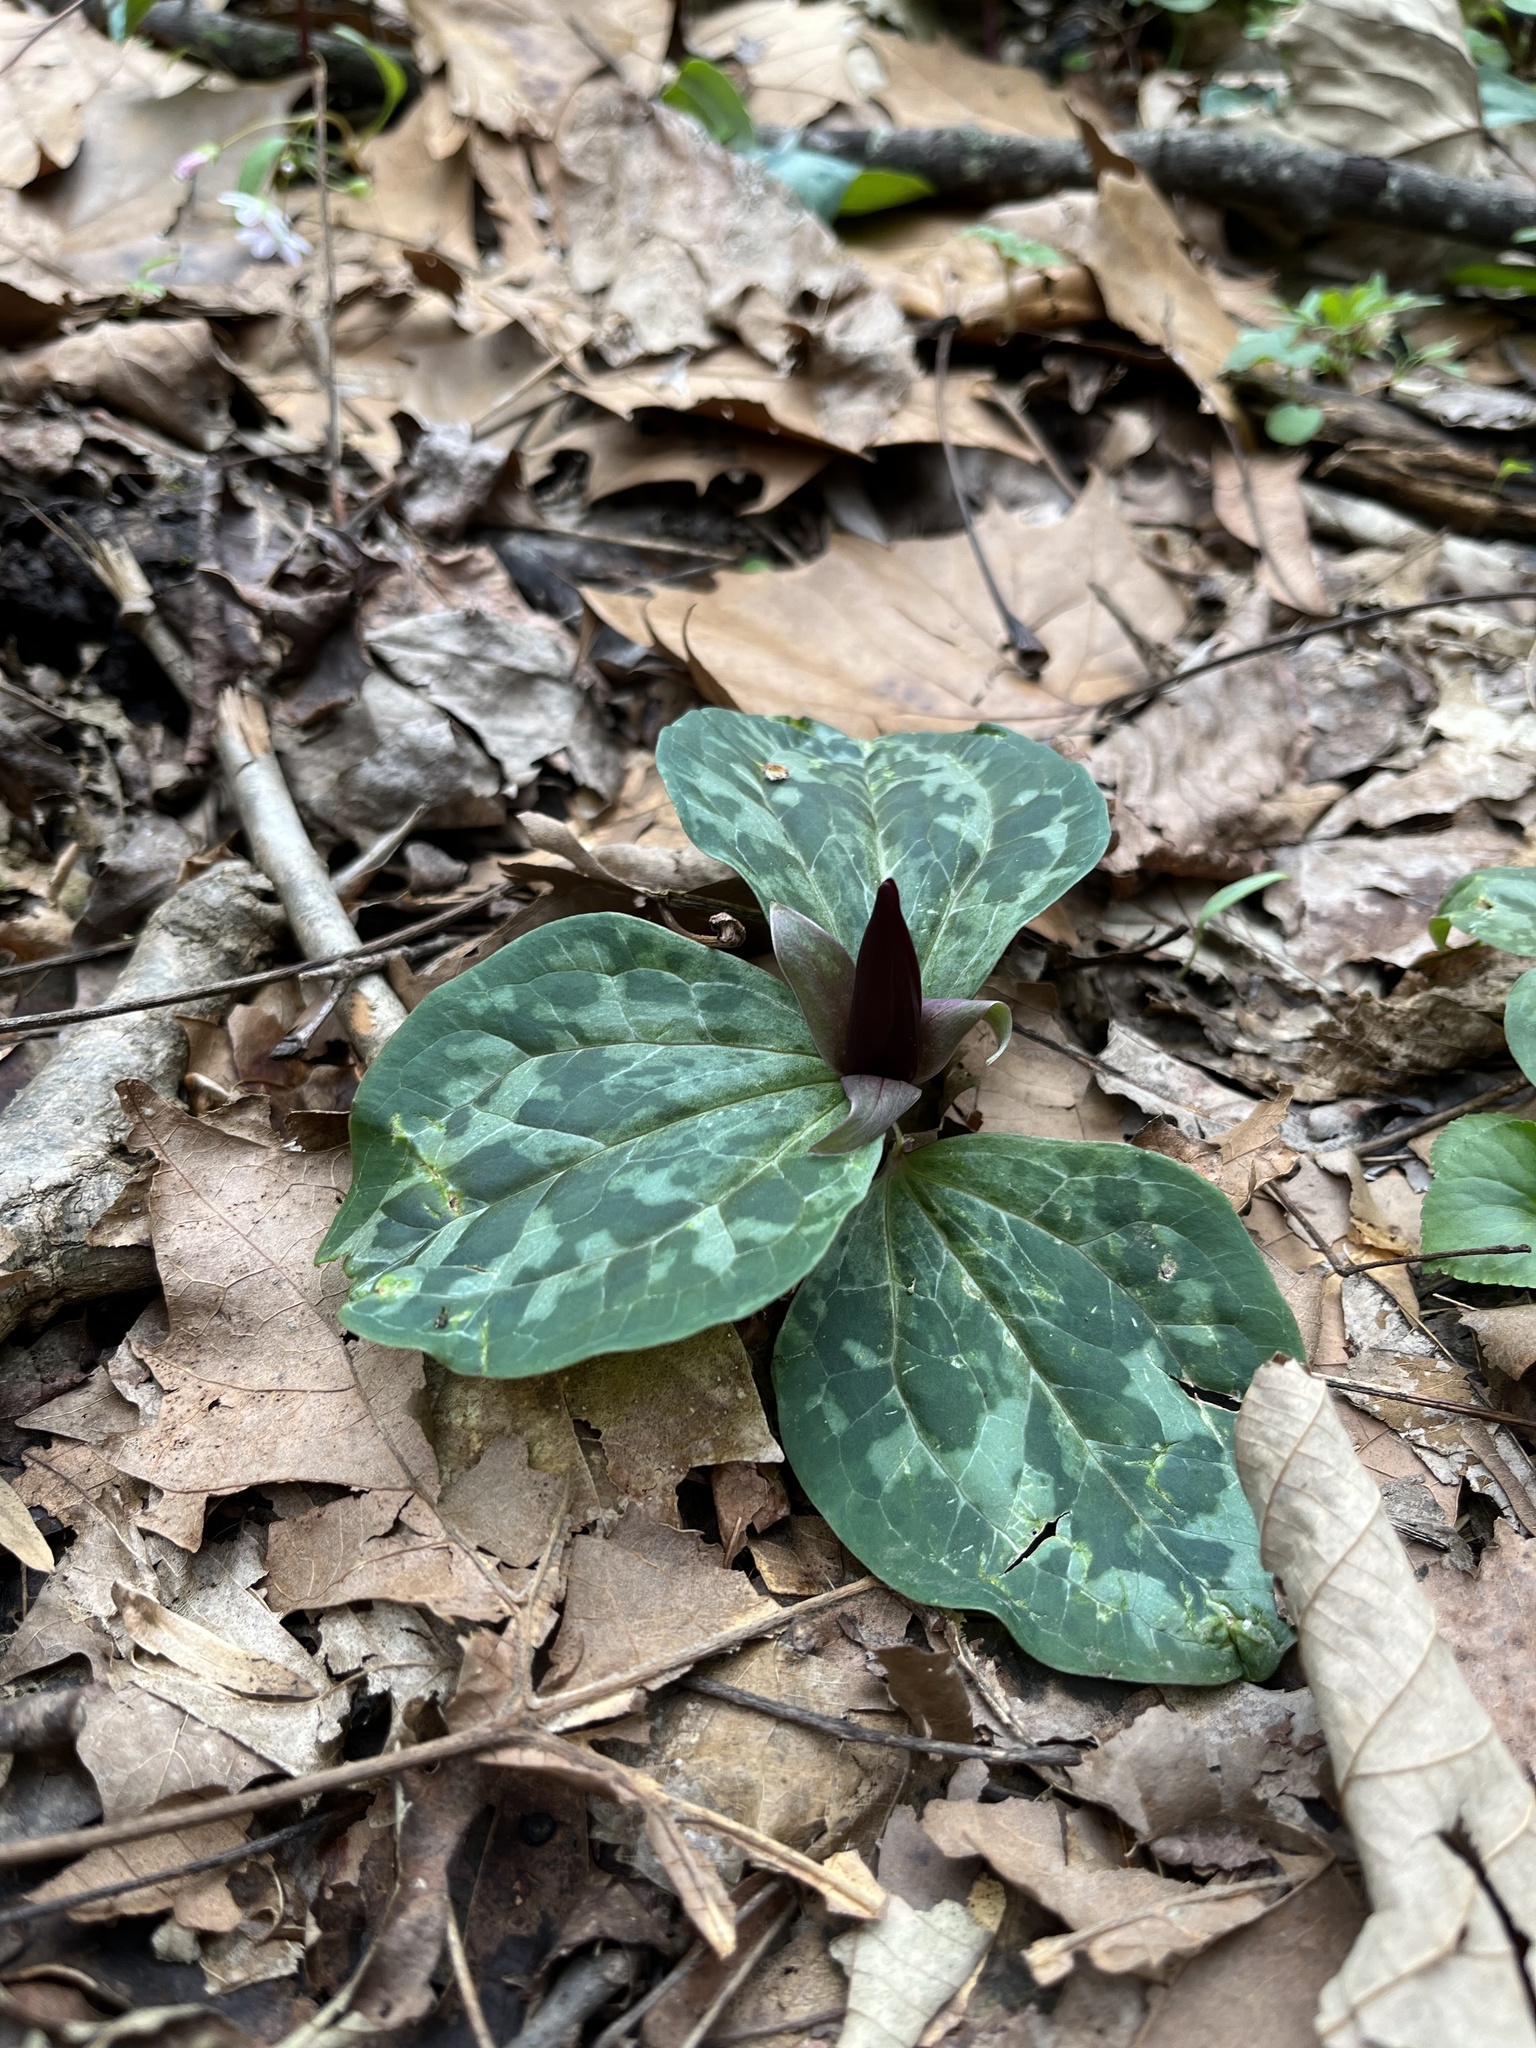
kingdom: Plantae
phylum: Tracheophyta
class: Liliopsida
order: Liliales
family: Melanthiaceae
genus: Trillium
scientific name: Trillium decumbens
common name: Decumbent trillium
